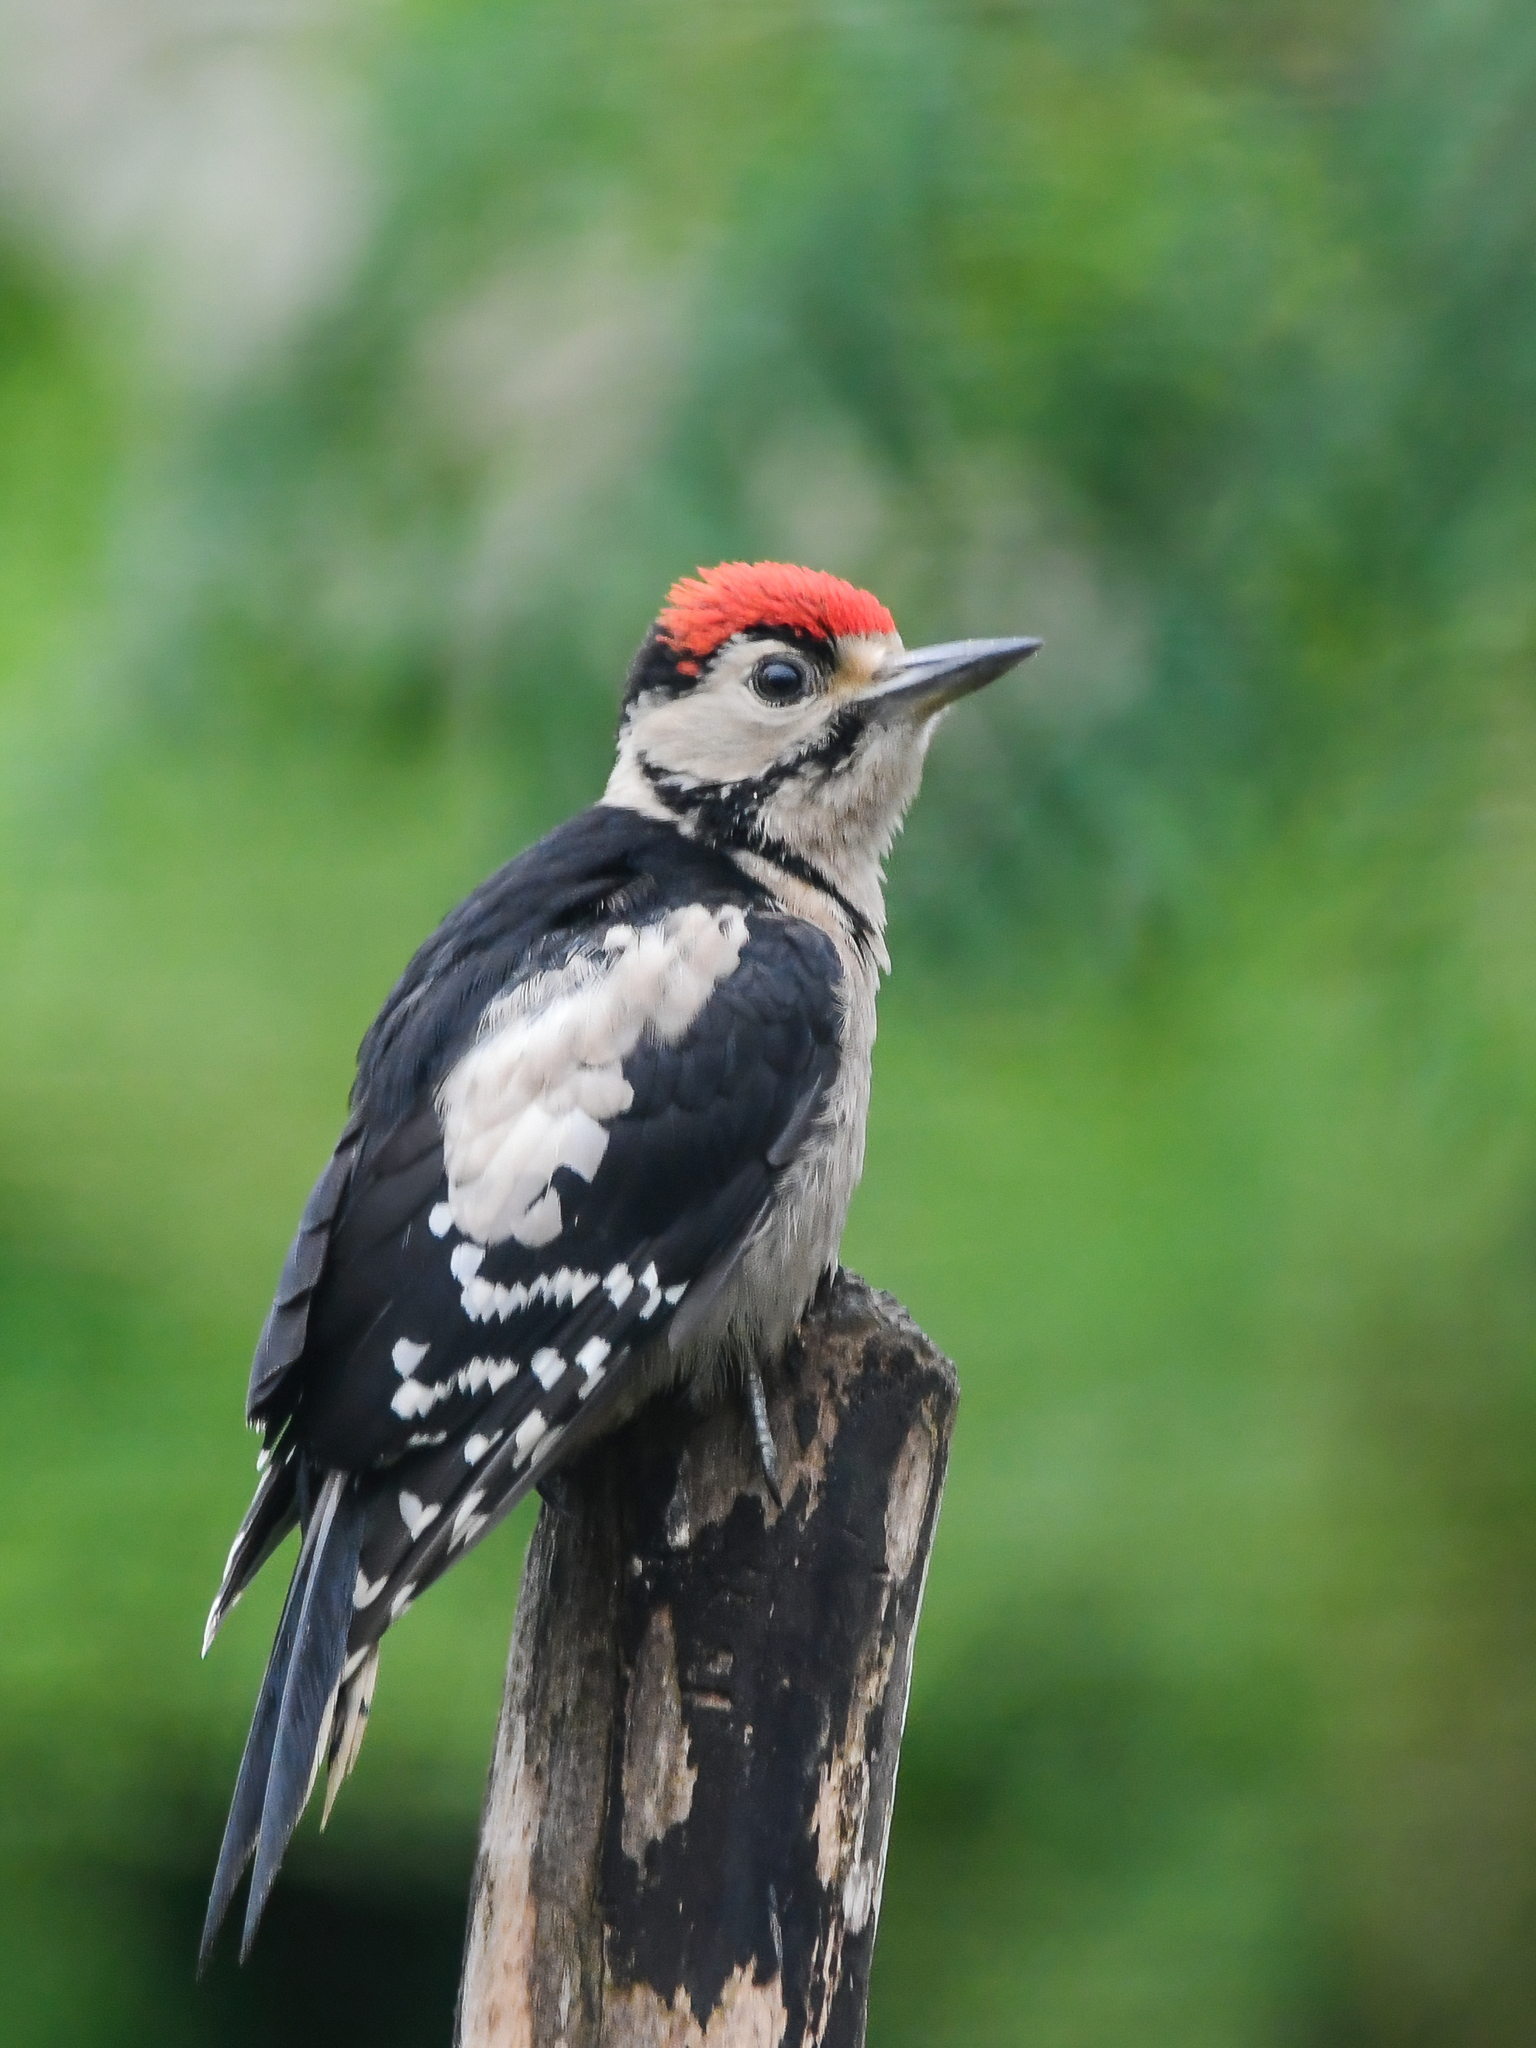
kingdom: Animalia
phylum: Chordata
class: Aves
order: Piciformes
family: Picidae
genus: Dendrocopos
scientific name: Dendrocopos major
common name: Great spotted woodpecker
